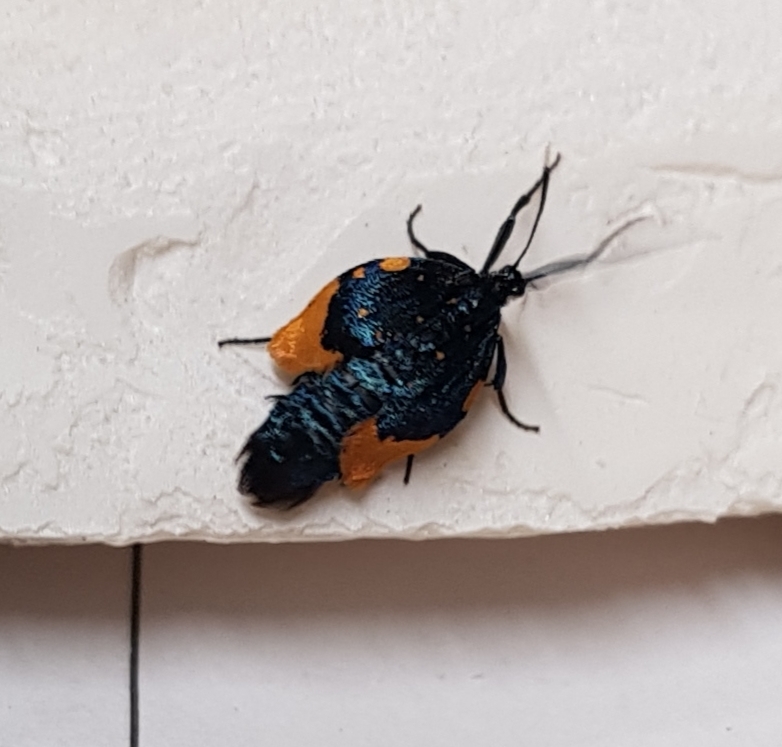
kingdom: Animalia
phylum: Arthropoda
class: Insecta
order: Lepidoptera
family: Psychidae
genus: Cebysa
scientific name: Cebysa leucotelus
